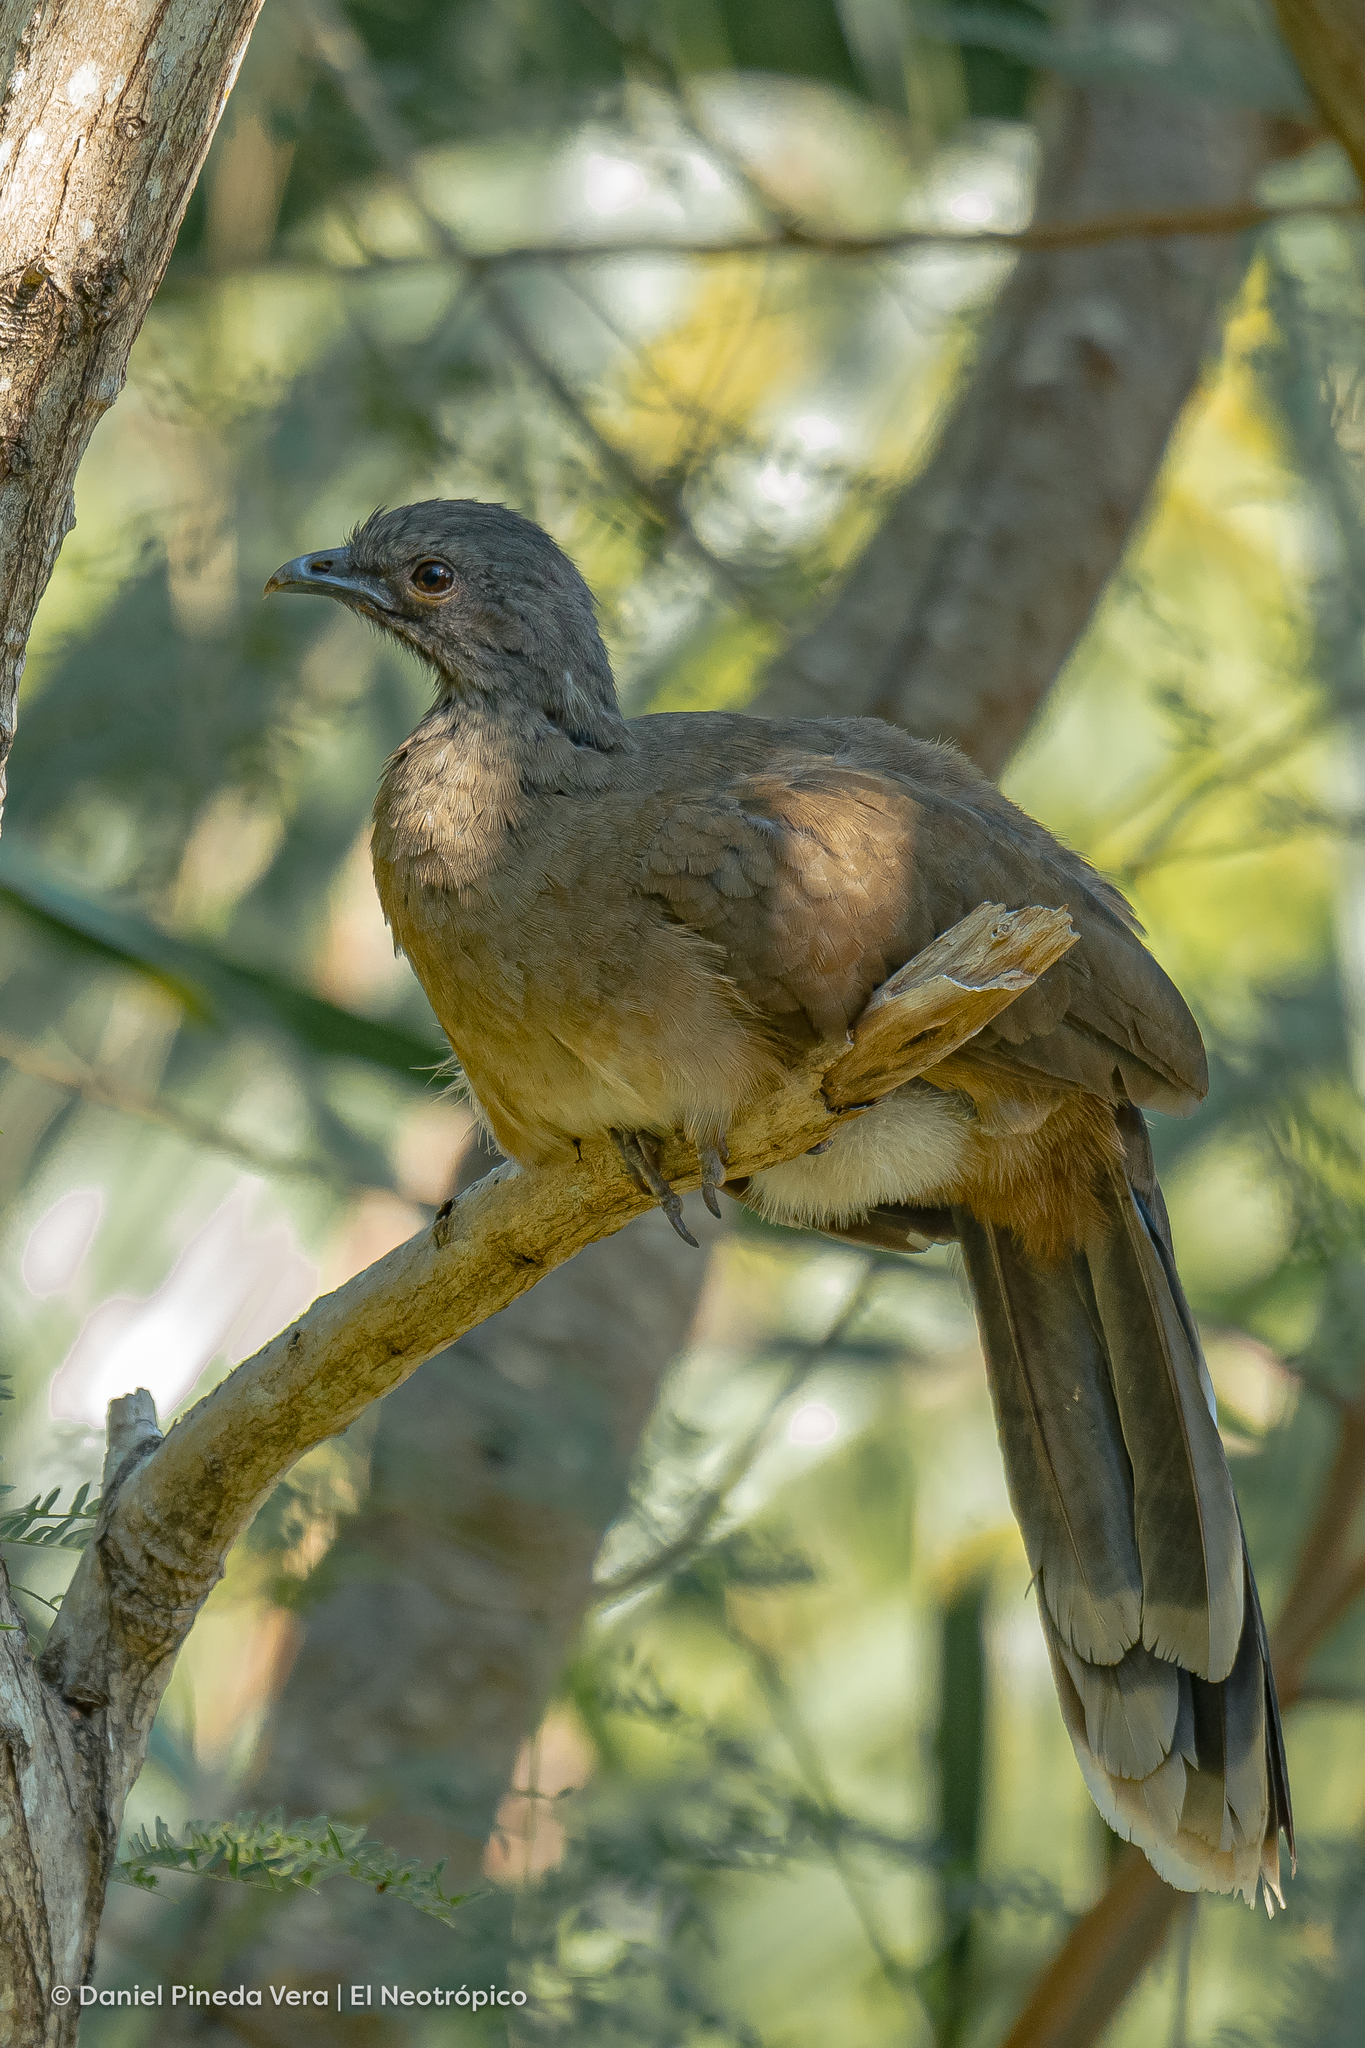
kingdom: Animalia
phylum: Chordata
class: Aves
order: Galliformes
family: Cracidae
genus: Ortalis
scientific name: Ortalis vetula
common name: Plain chachalaca
